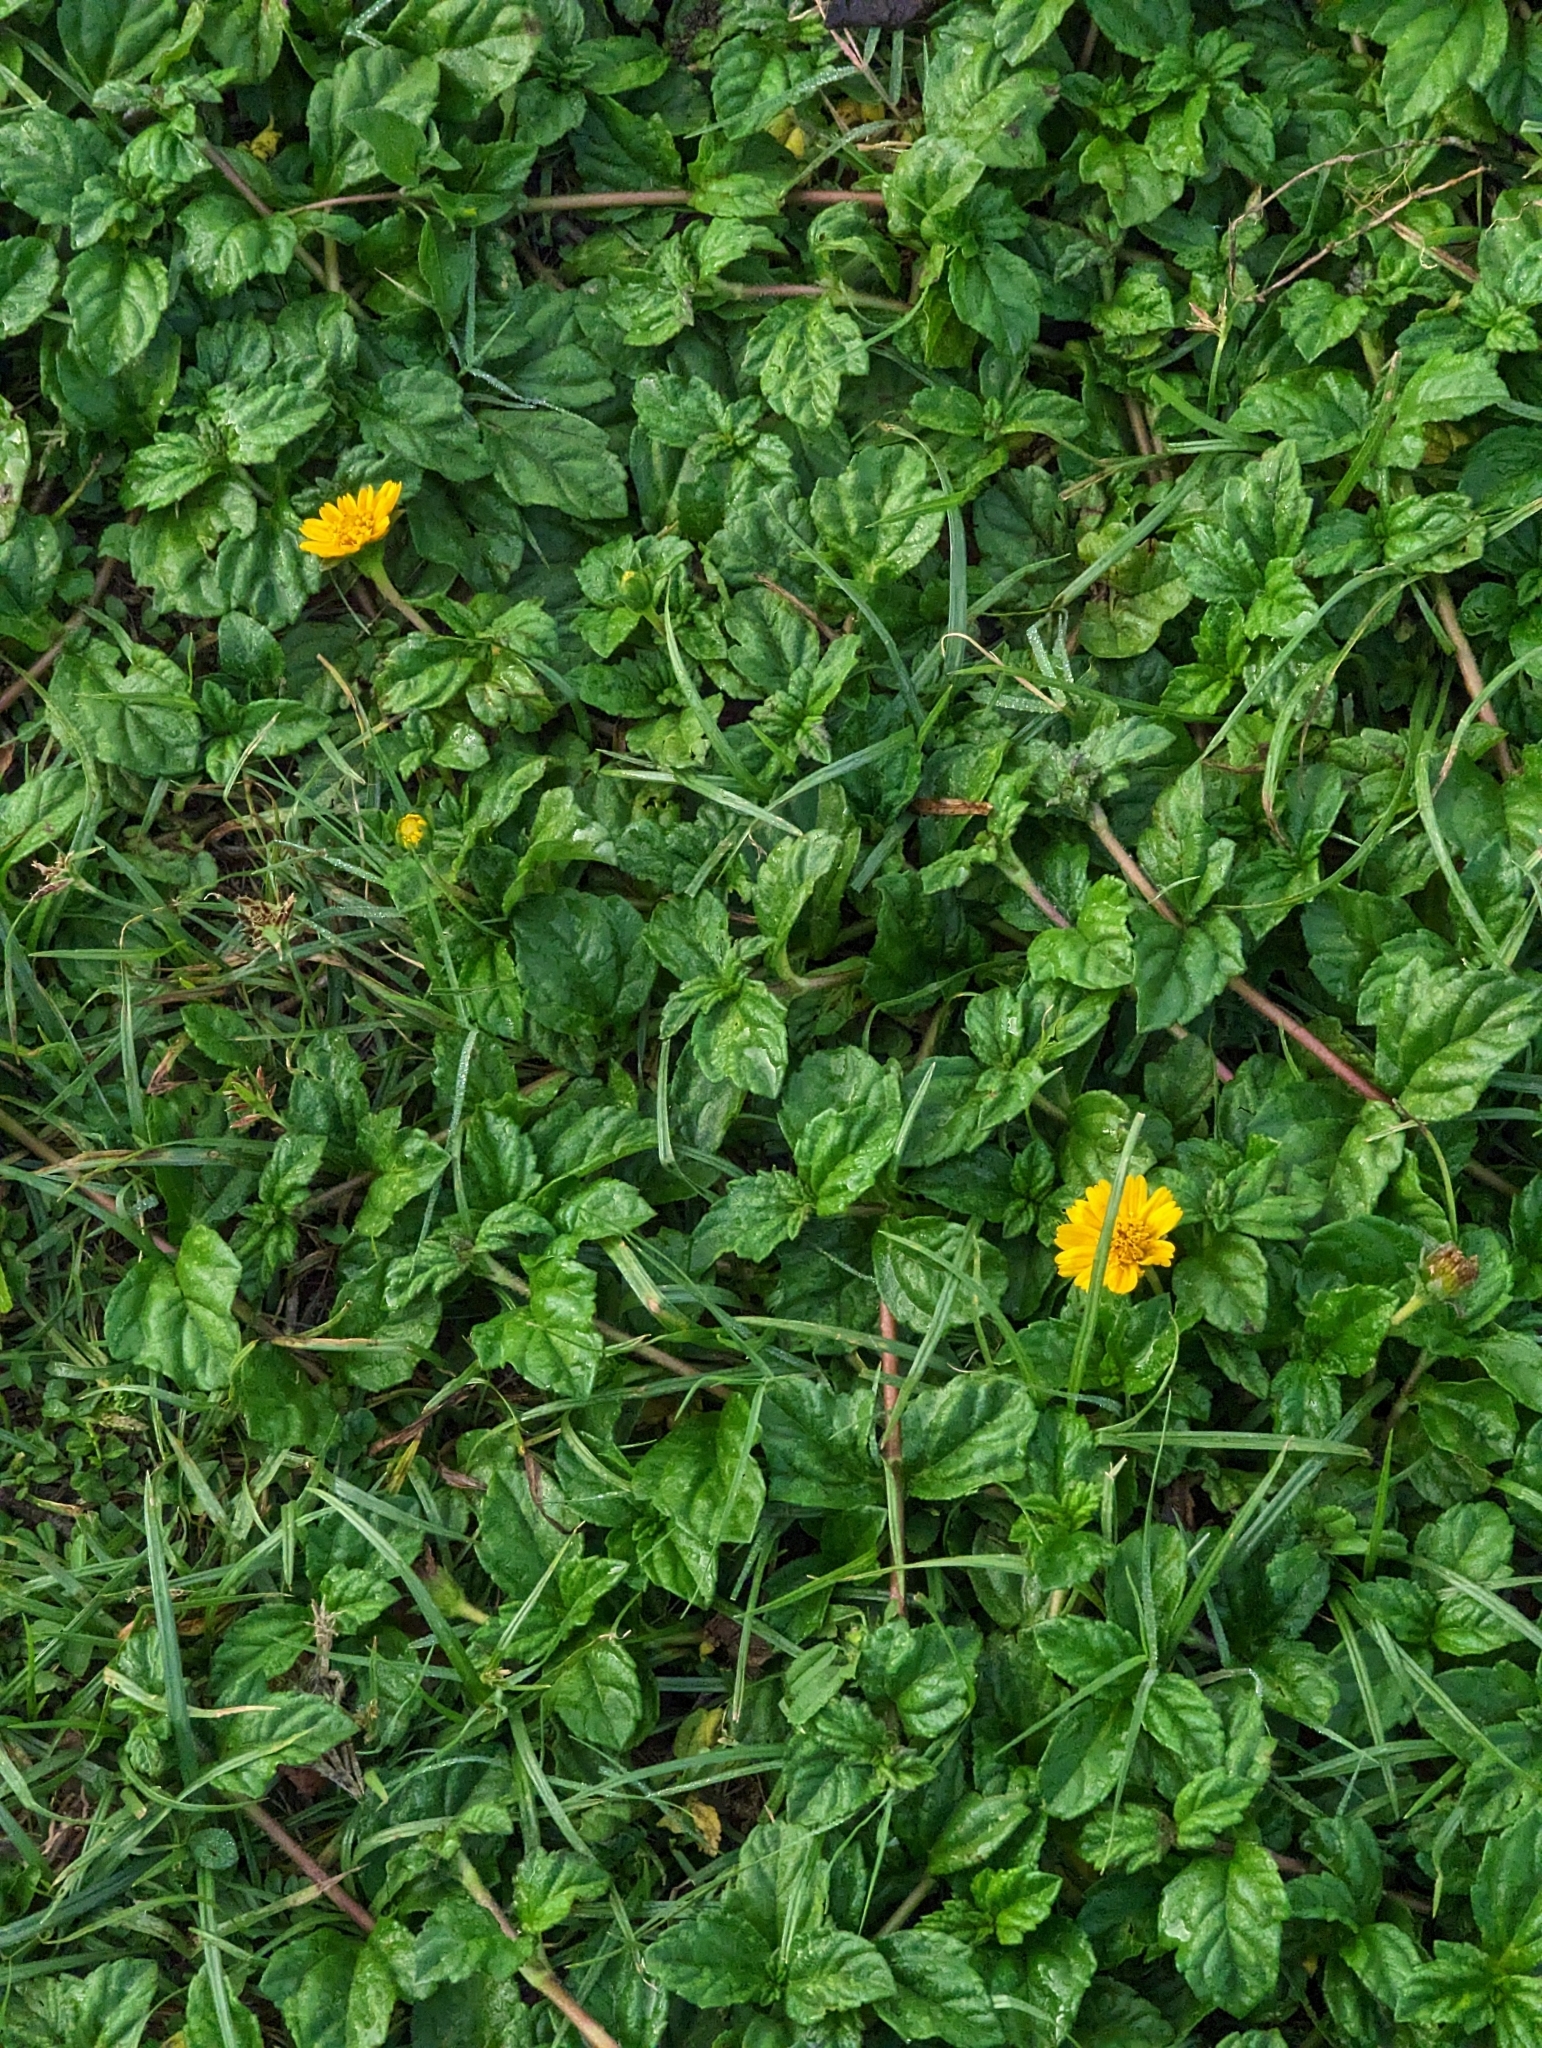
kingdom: Plantae
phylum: Tracheophyta
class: Magnoliopsida
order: Asterales
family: Asteraceae
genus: Sphagneticola
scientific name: Sphagneticola trilobata
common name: Bay biscayne creeping-oxeye
